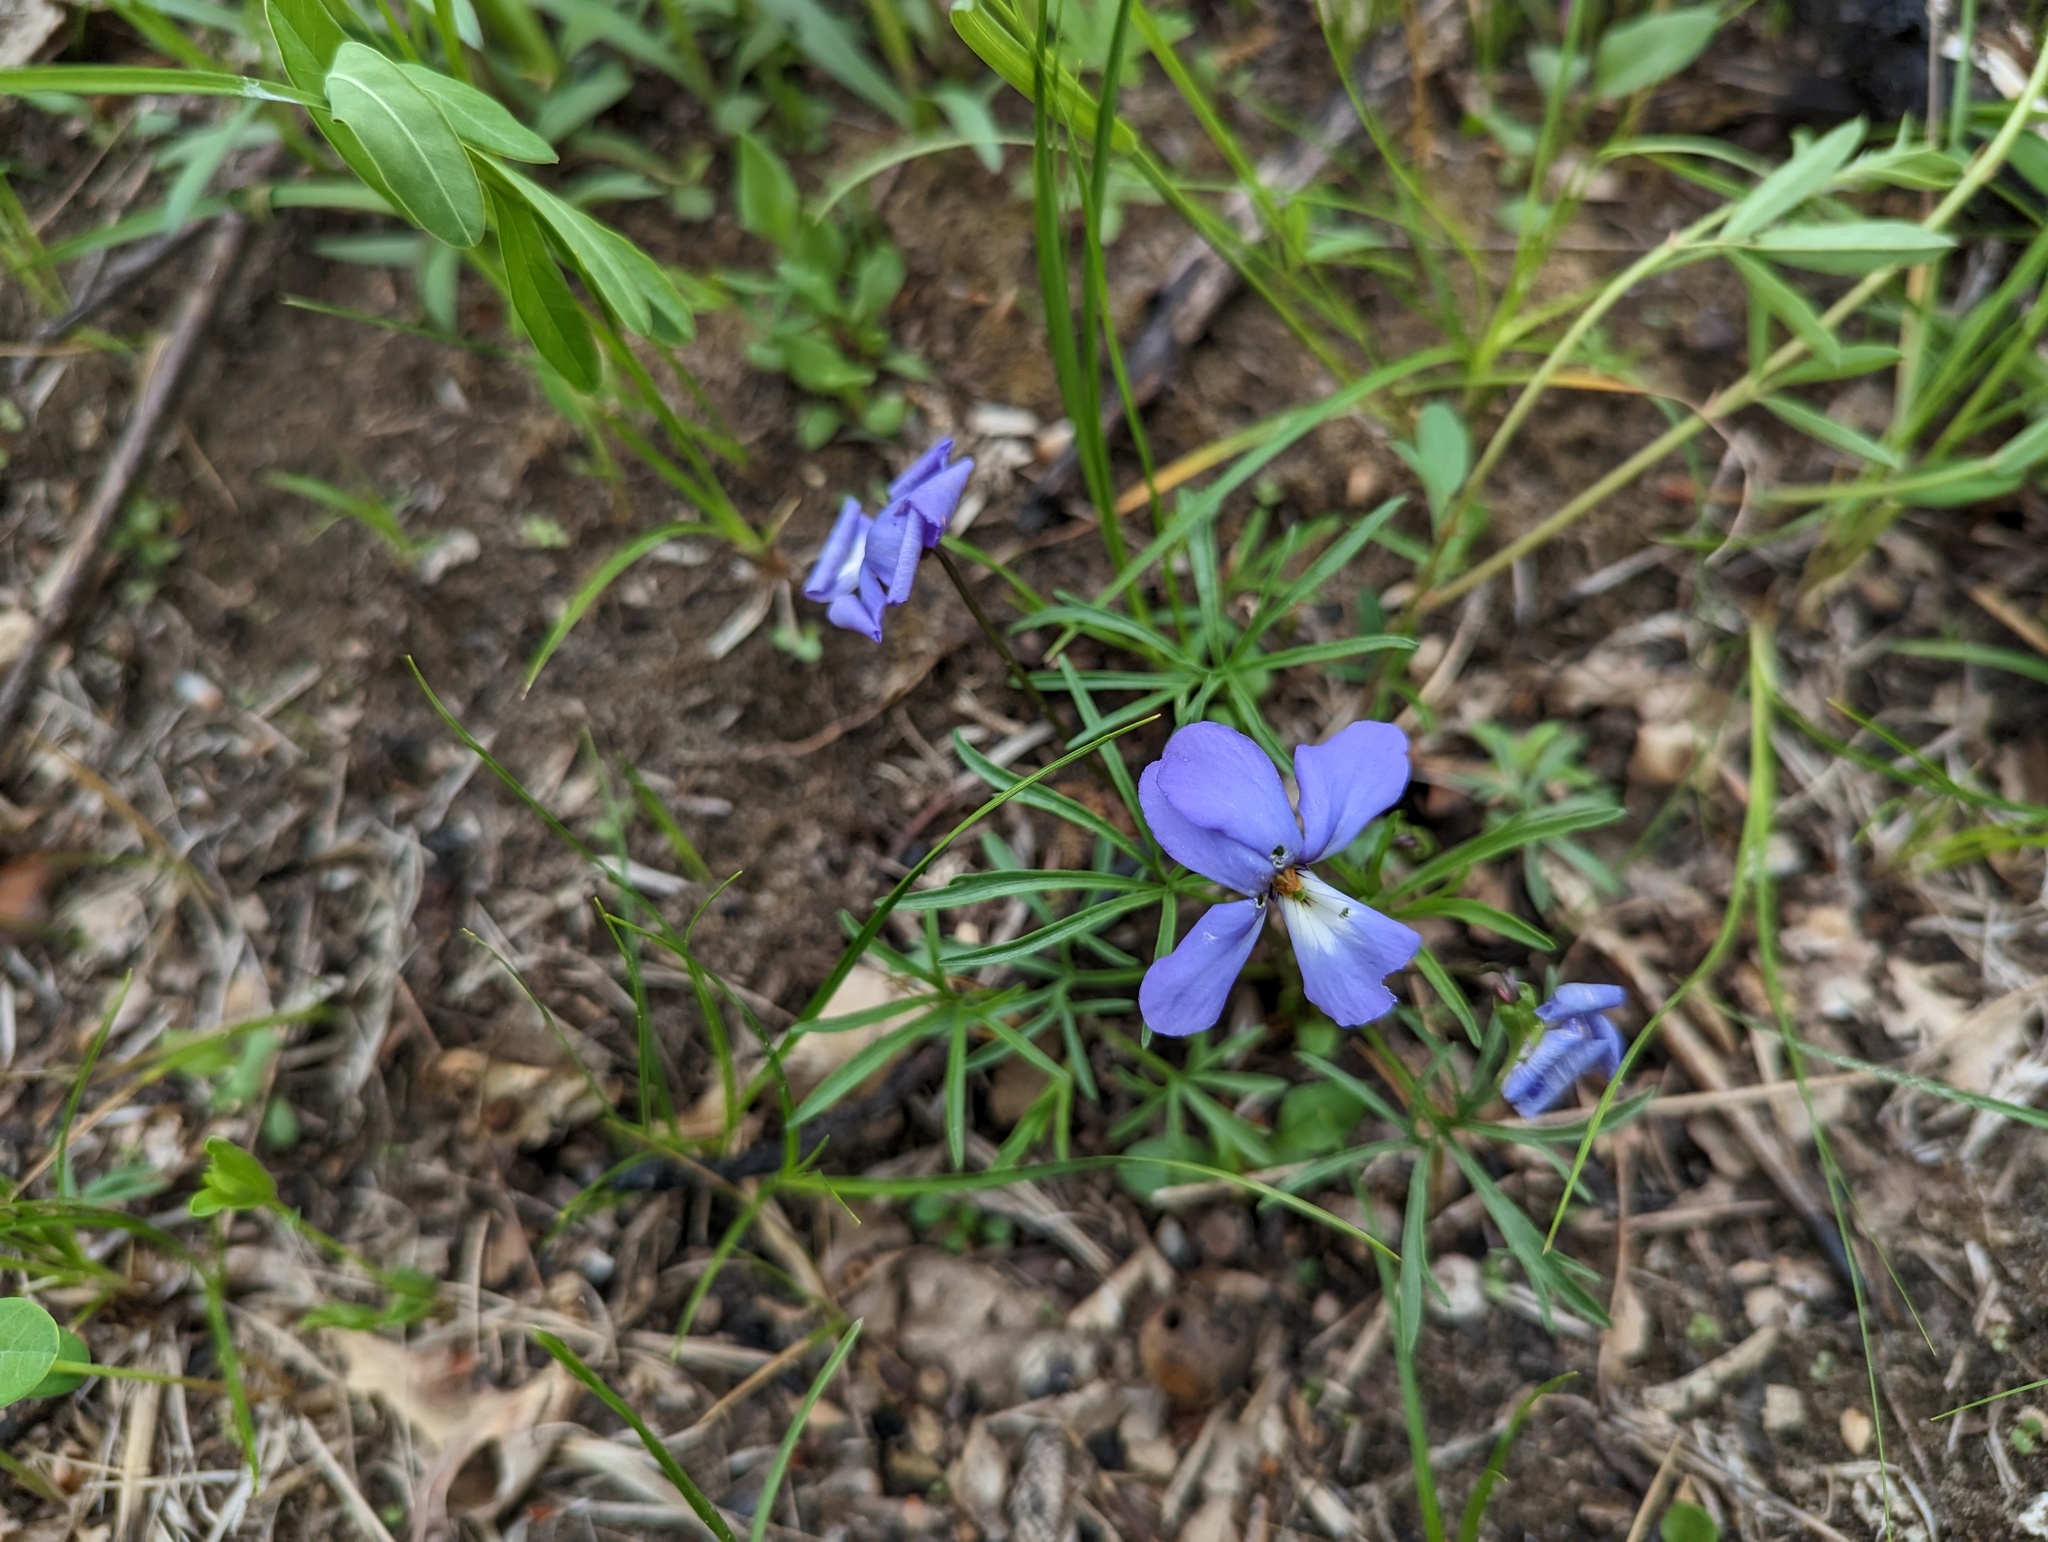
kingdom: Plantae
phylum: Tracheophyta
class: Magnoliopsida
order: Malpighiales
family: Violaceae
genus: Viola
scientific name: Viola pedata
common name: Pansy violet
